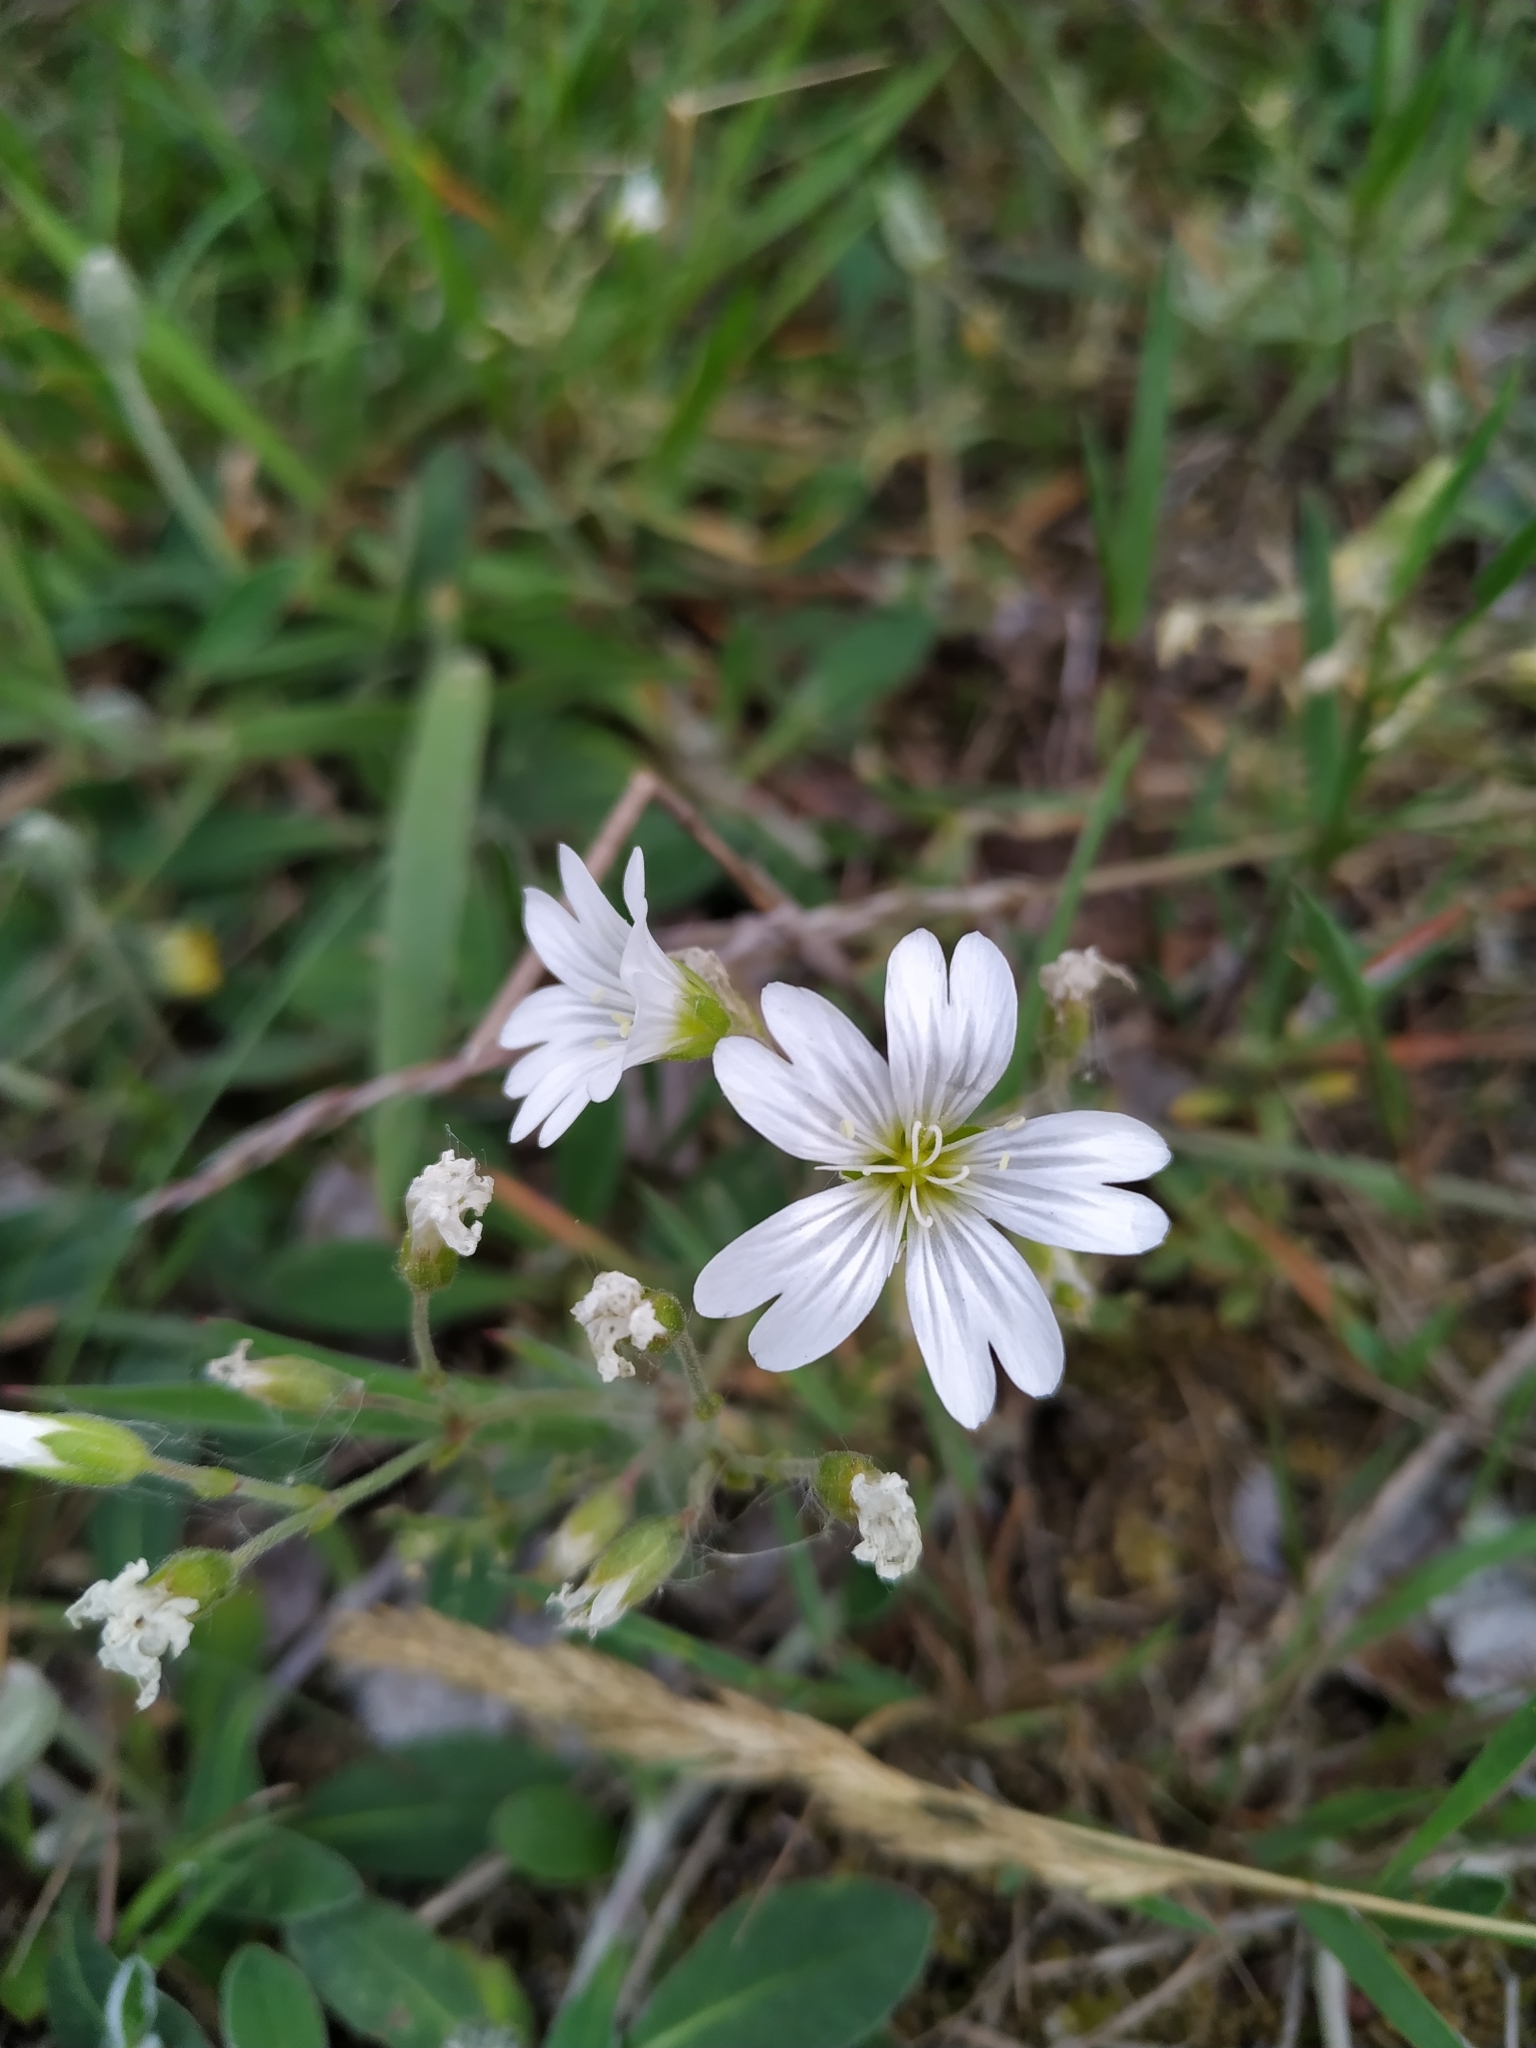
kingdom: Plantae
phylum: Tracheophyta
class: Magnoliopsida
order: Caryophyllales
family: Caryophyllaceae
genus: Cerastium
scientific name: Cerastium arvense
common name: Field mouse-ear
